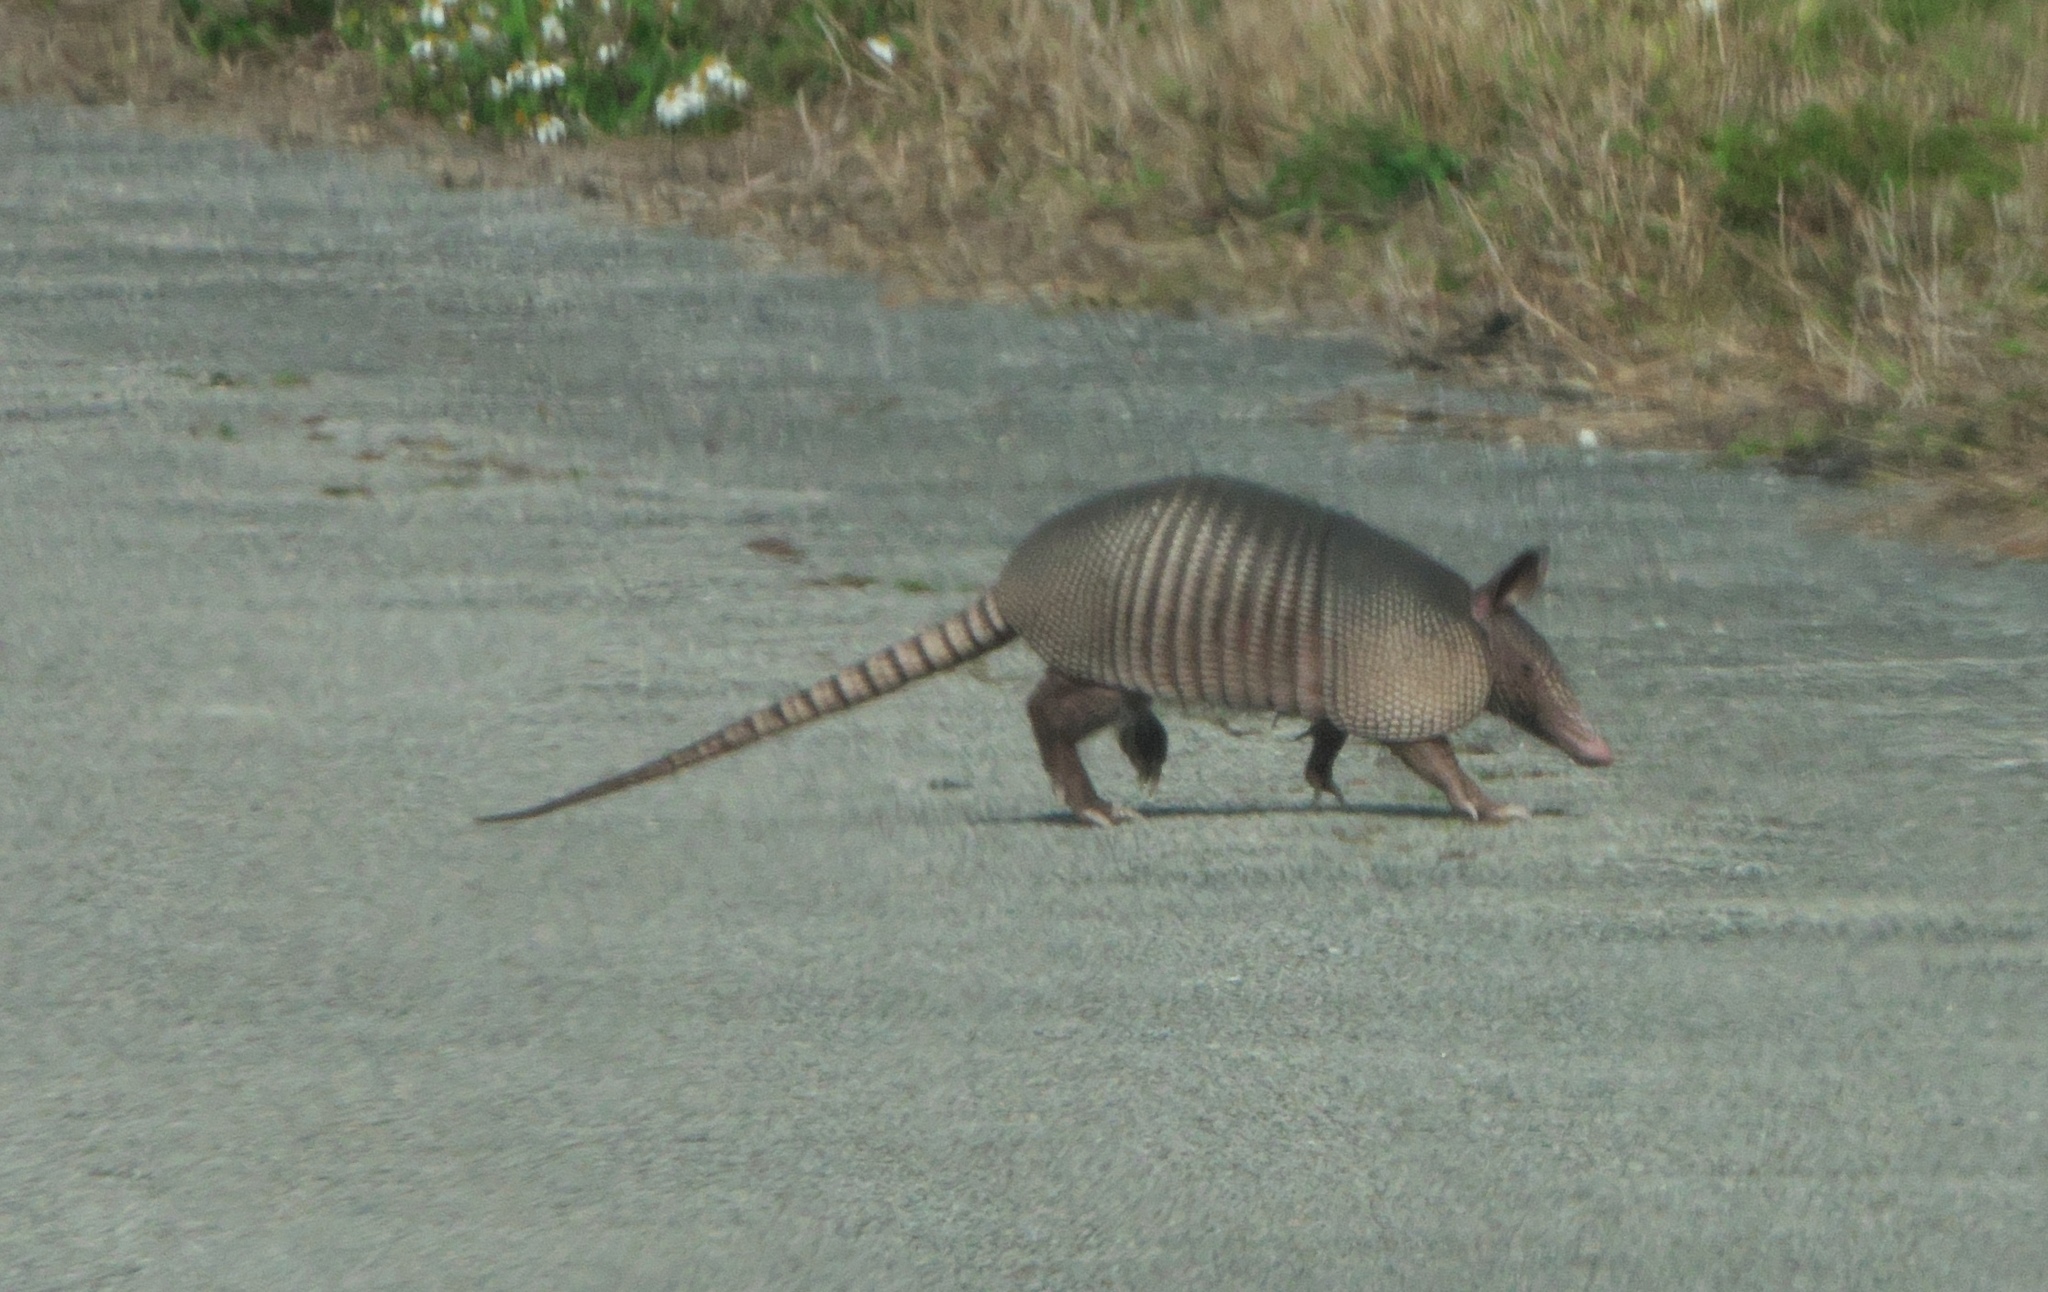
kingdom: Animalia
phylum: Chordata
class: Mammalia
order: Cingulata
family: Dasypodidae
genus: Dasypus
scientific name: Dasypus novemcinctus
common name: Nine-banded armadillo
